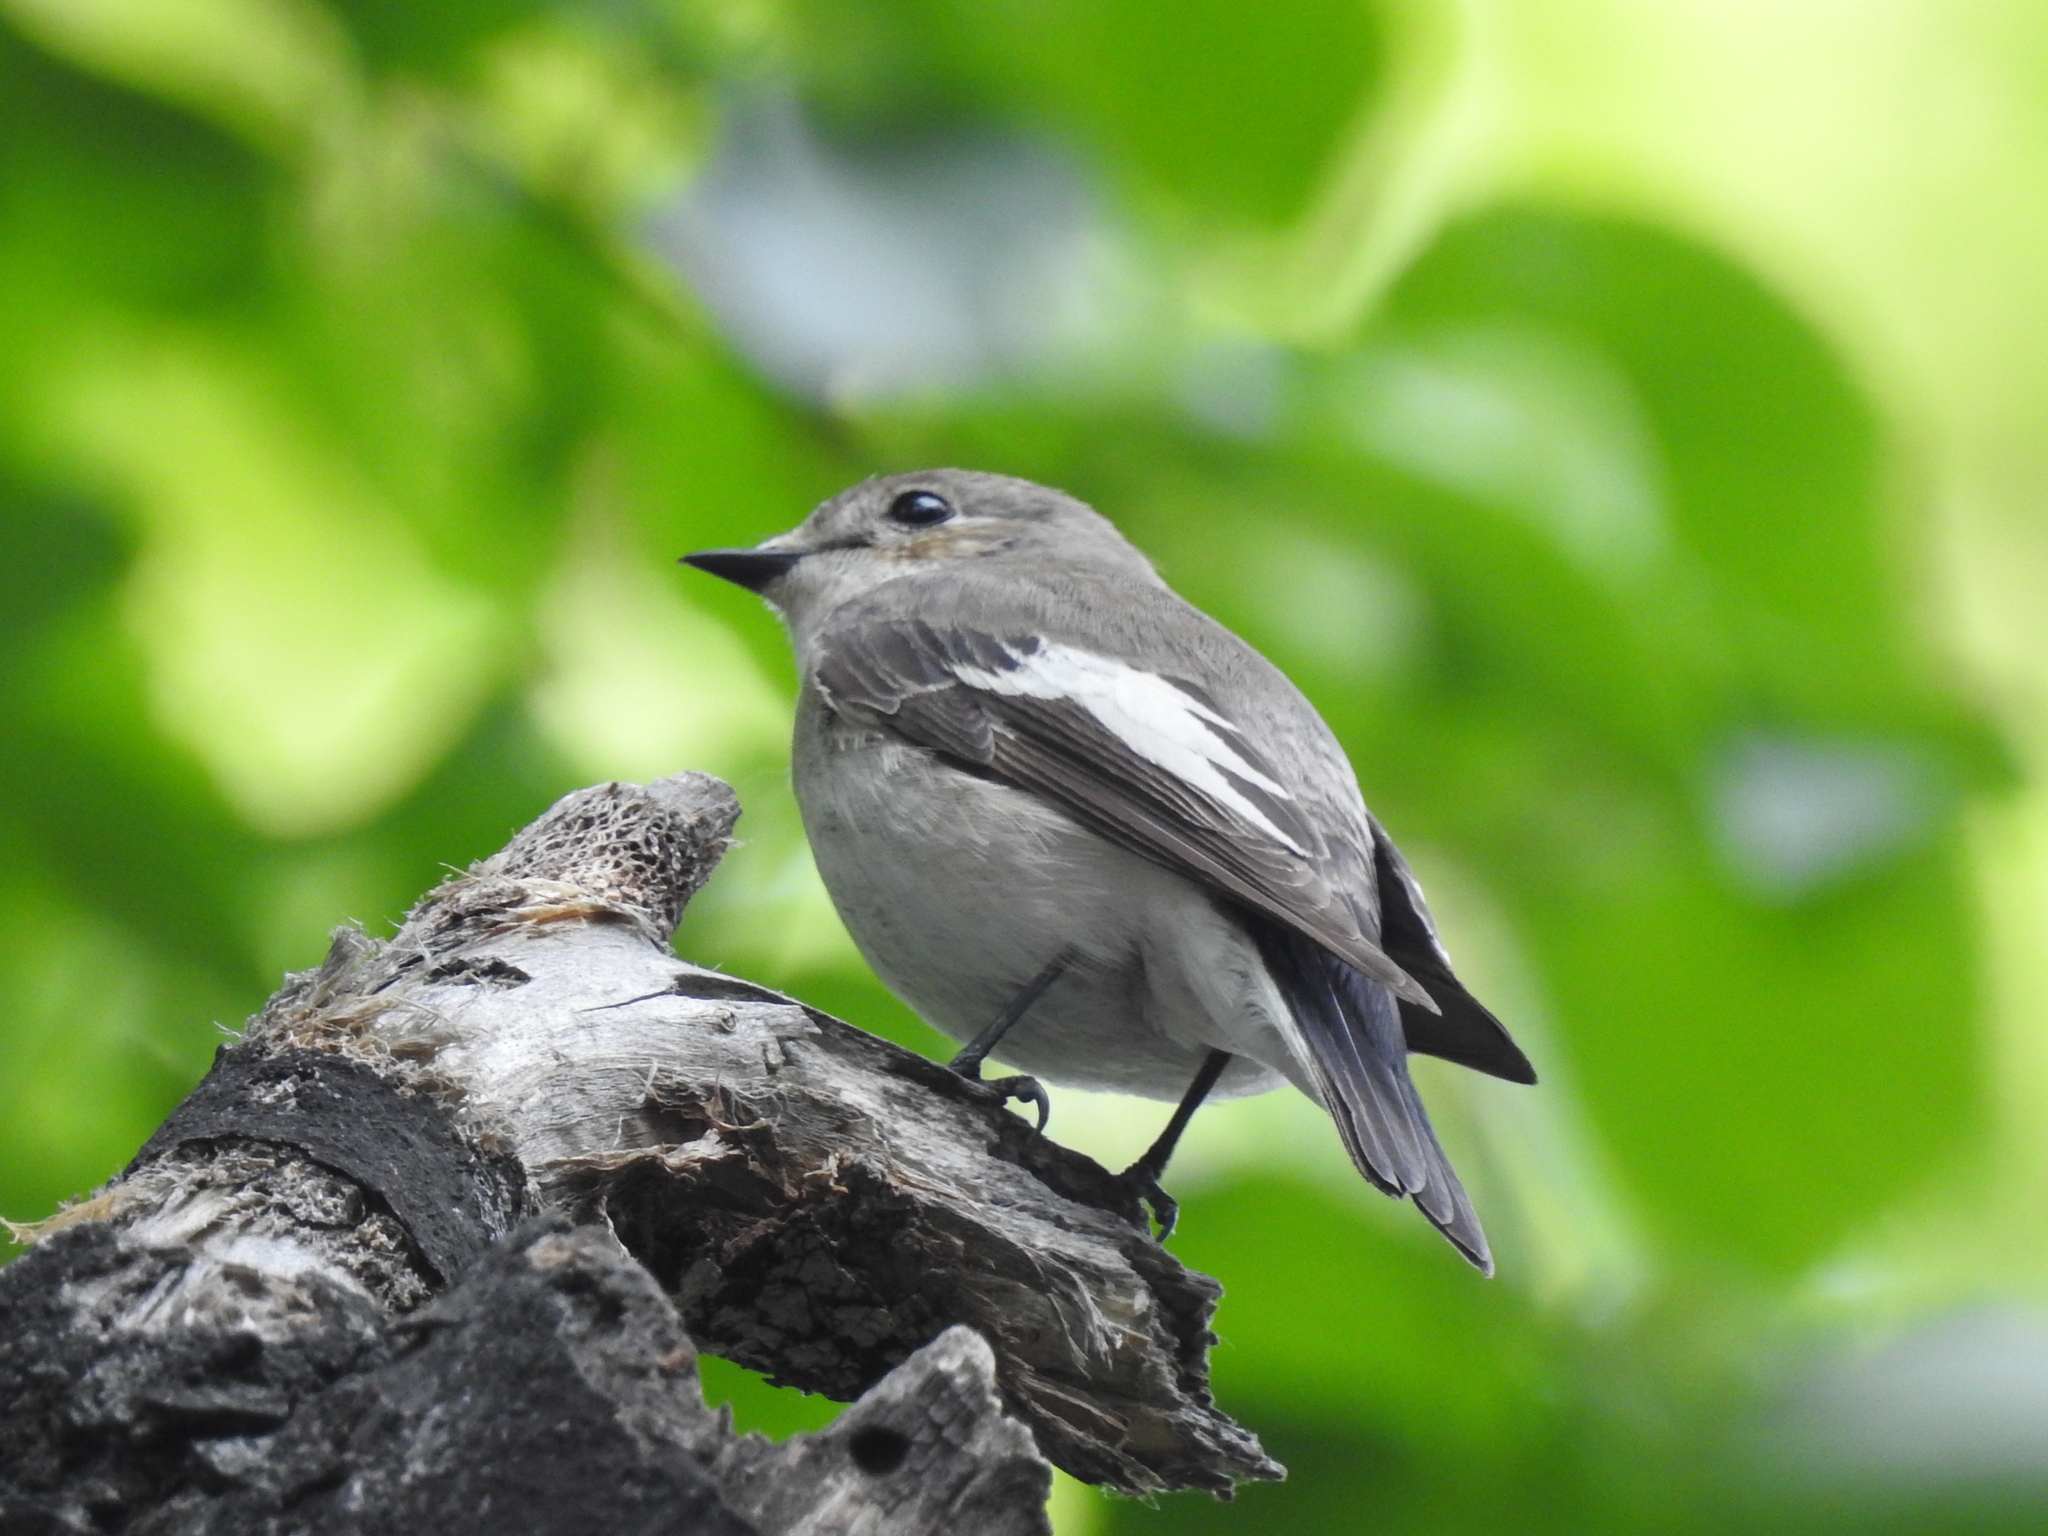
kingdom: Animalia
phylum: Chordata
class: Aves
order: Passeriformes
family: Muscicapidae
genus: Ficedula
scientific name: Ficedula hypoleuca
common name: European pied flycatcher
